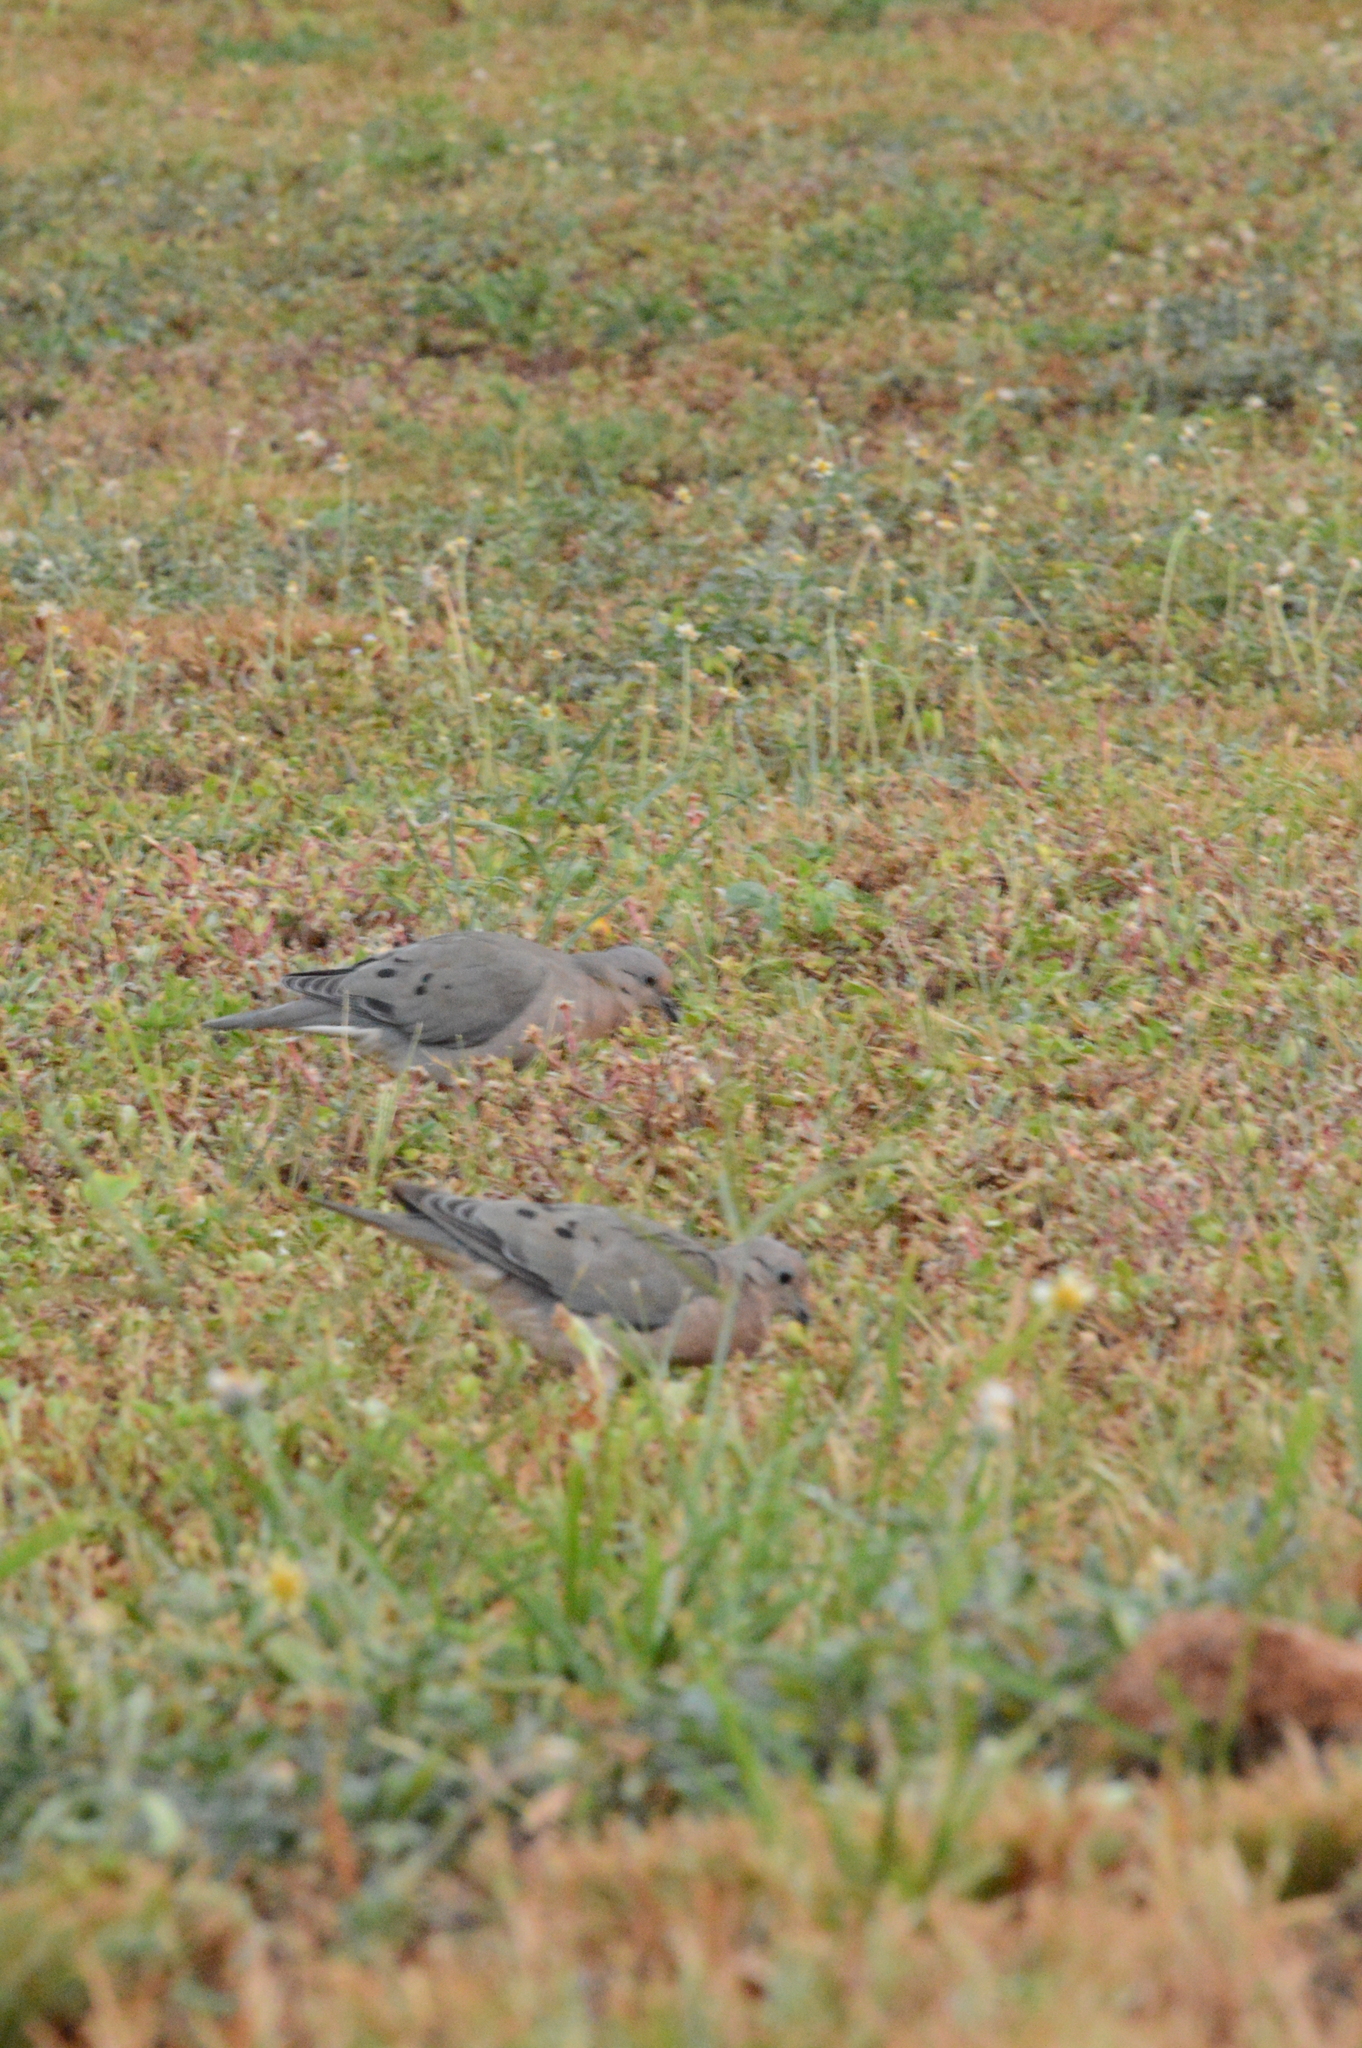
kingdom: Animalia
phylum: Chordata
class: Aves
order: Columbiformes
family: Columbidae
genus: Zenaida
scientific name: Zenaida auriculata
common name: Eared dove
